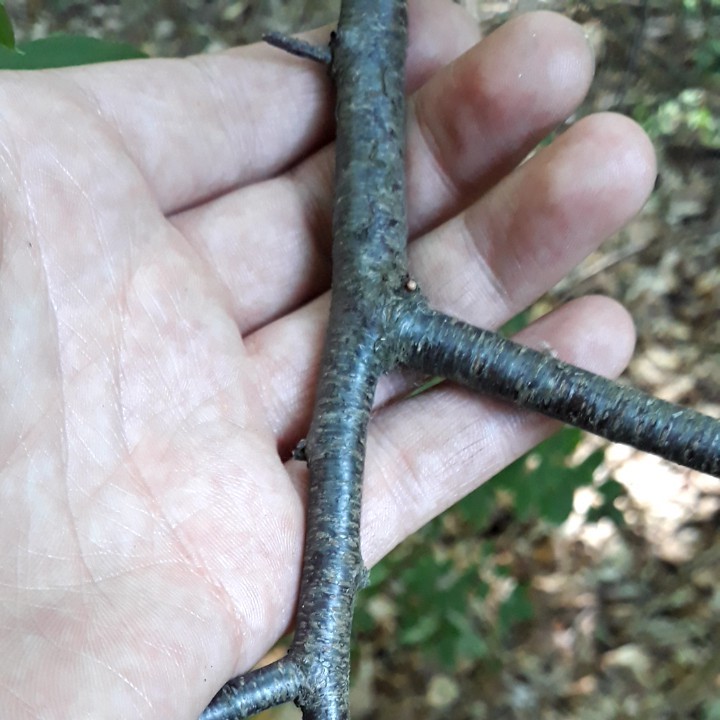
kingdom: Plantae
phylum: Tracheophyta
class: Magnoliopsida
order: Rosales
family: Rosaceae
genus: Prunus
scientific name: Prunus serotina
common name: Black cherry
